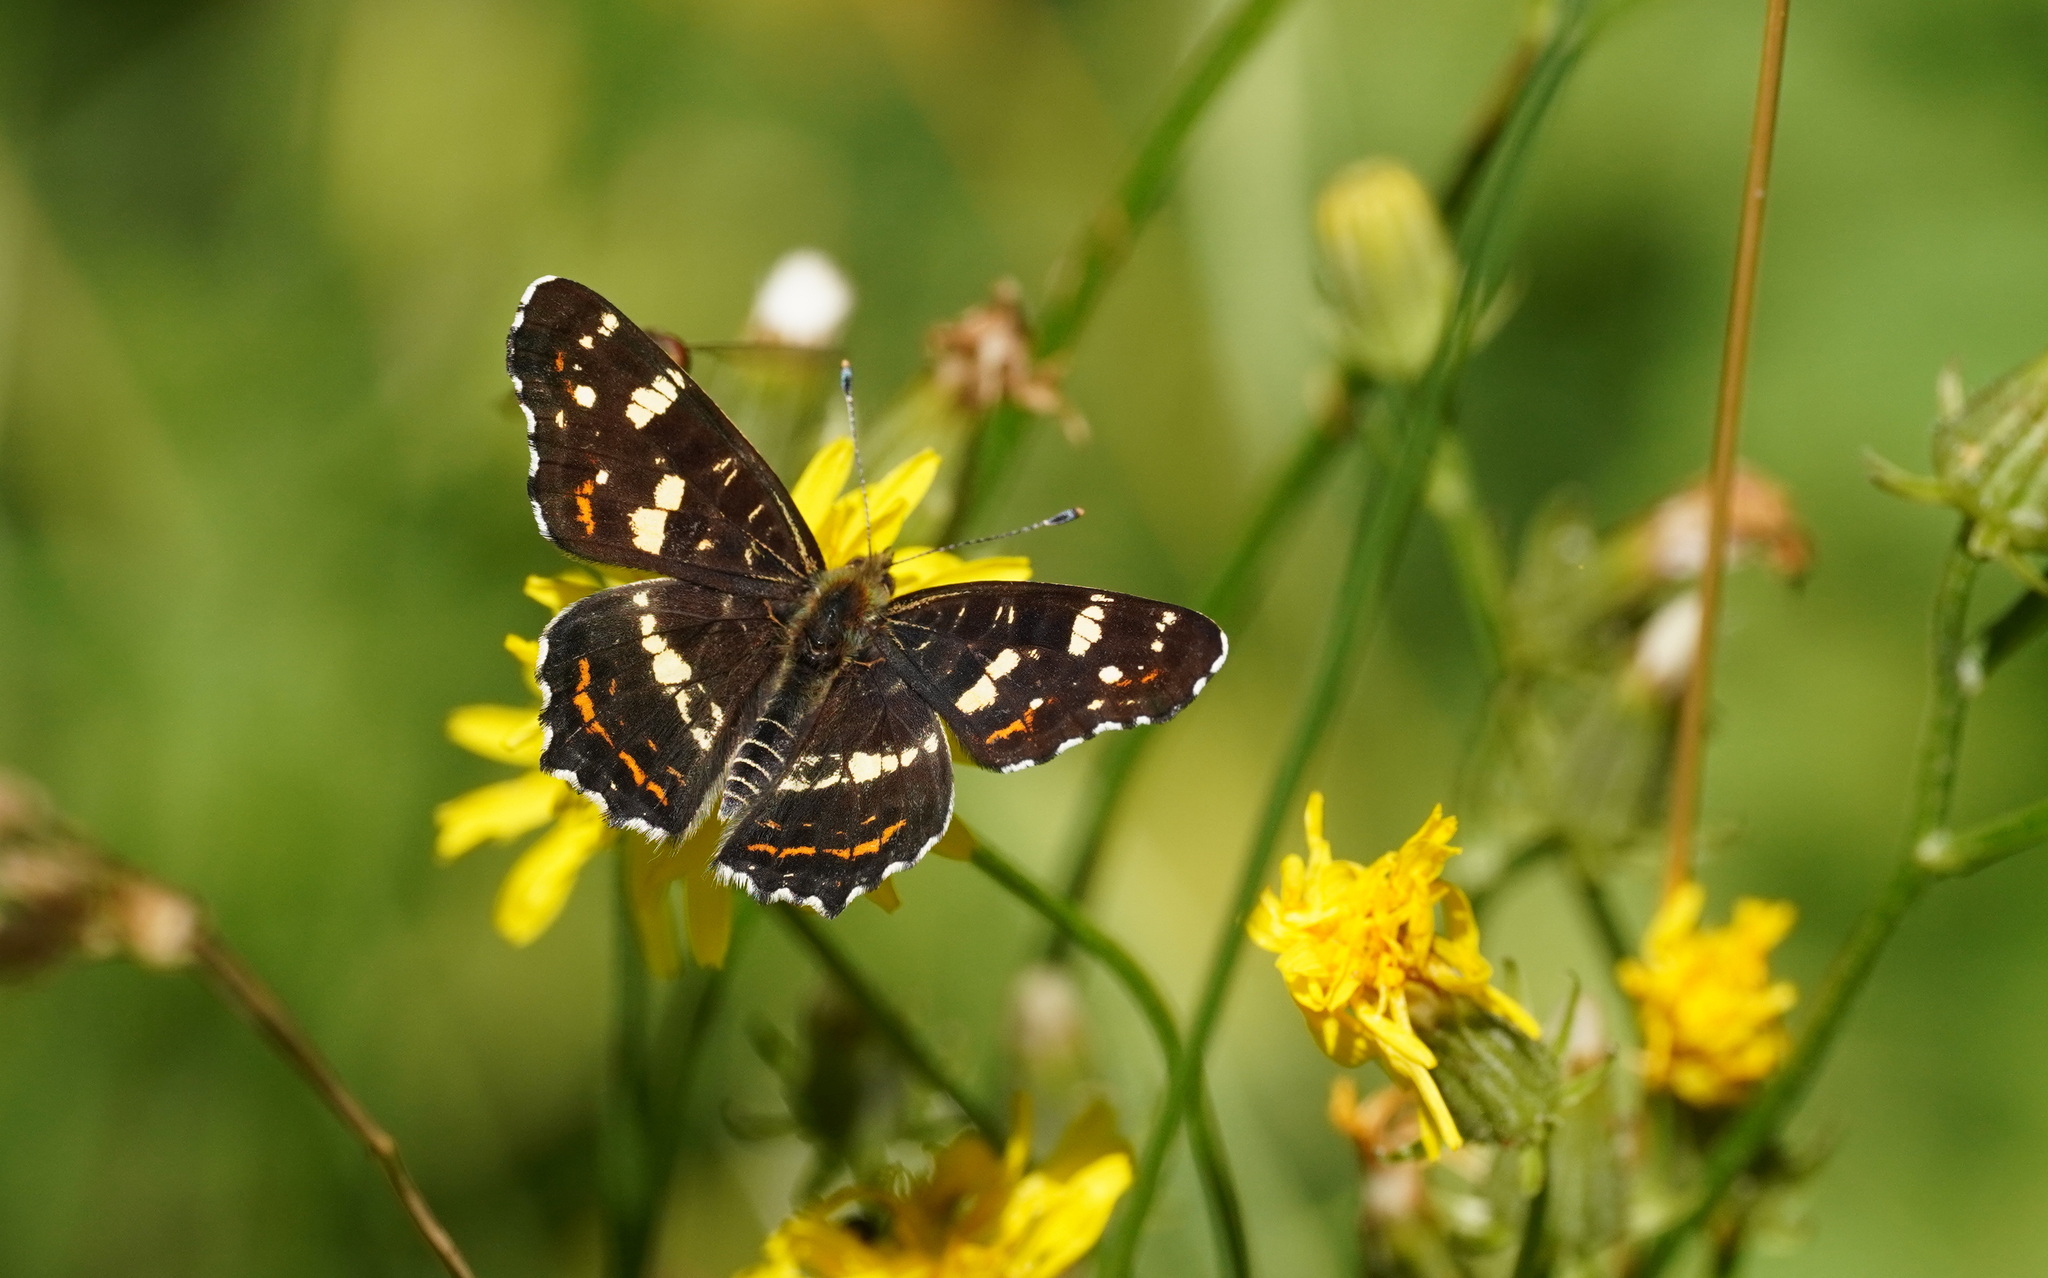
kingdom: Animalia
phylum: Arthropoda
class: Insecta
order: Lepidoptera
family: Nymphalidae
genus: Araschnia
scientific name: Araschnia levana
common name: Map butterfly
